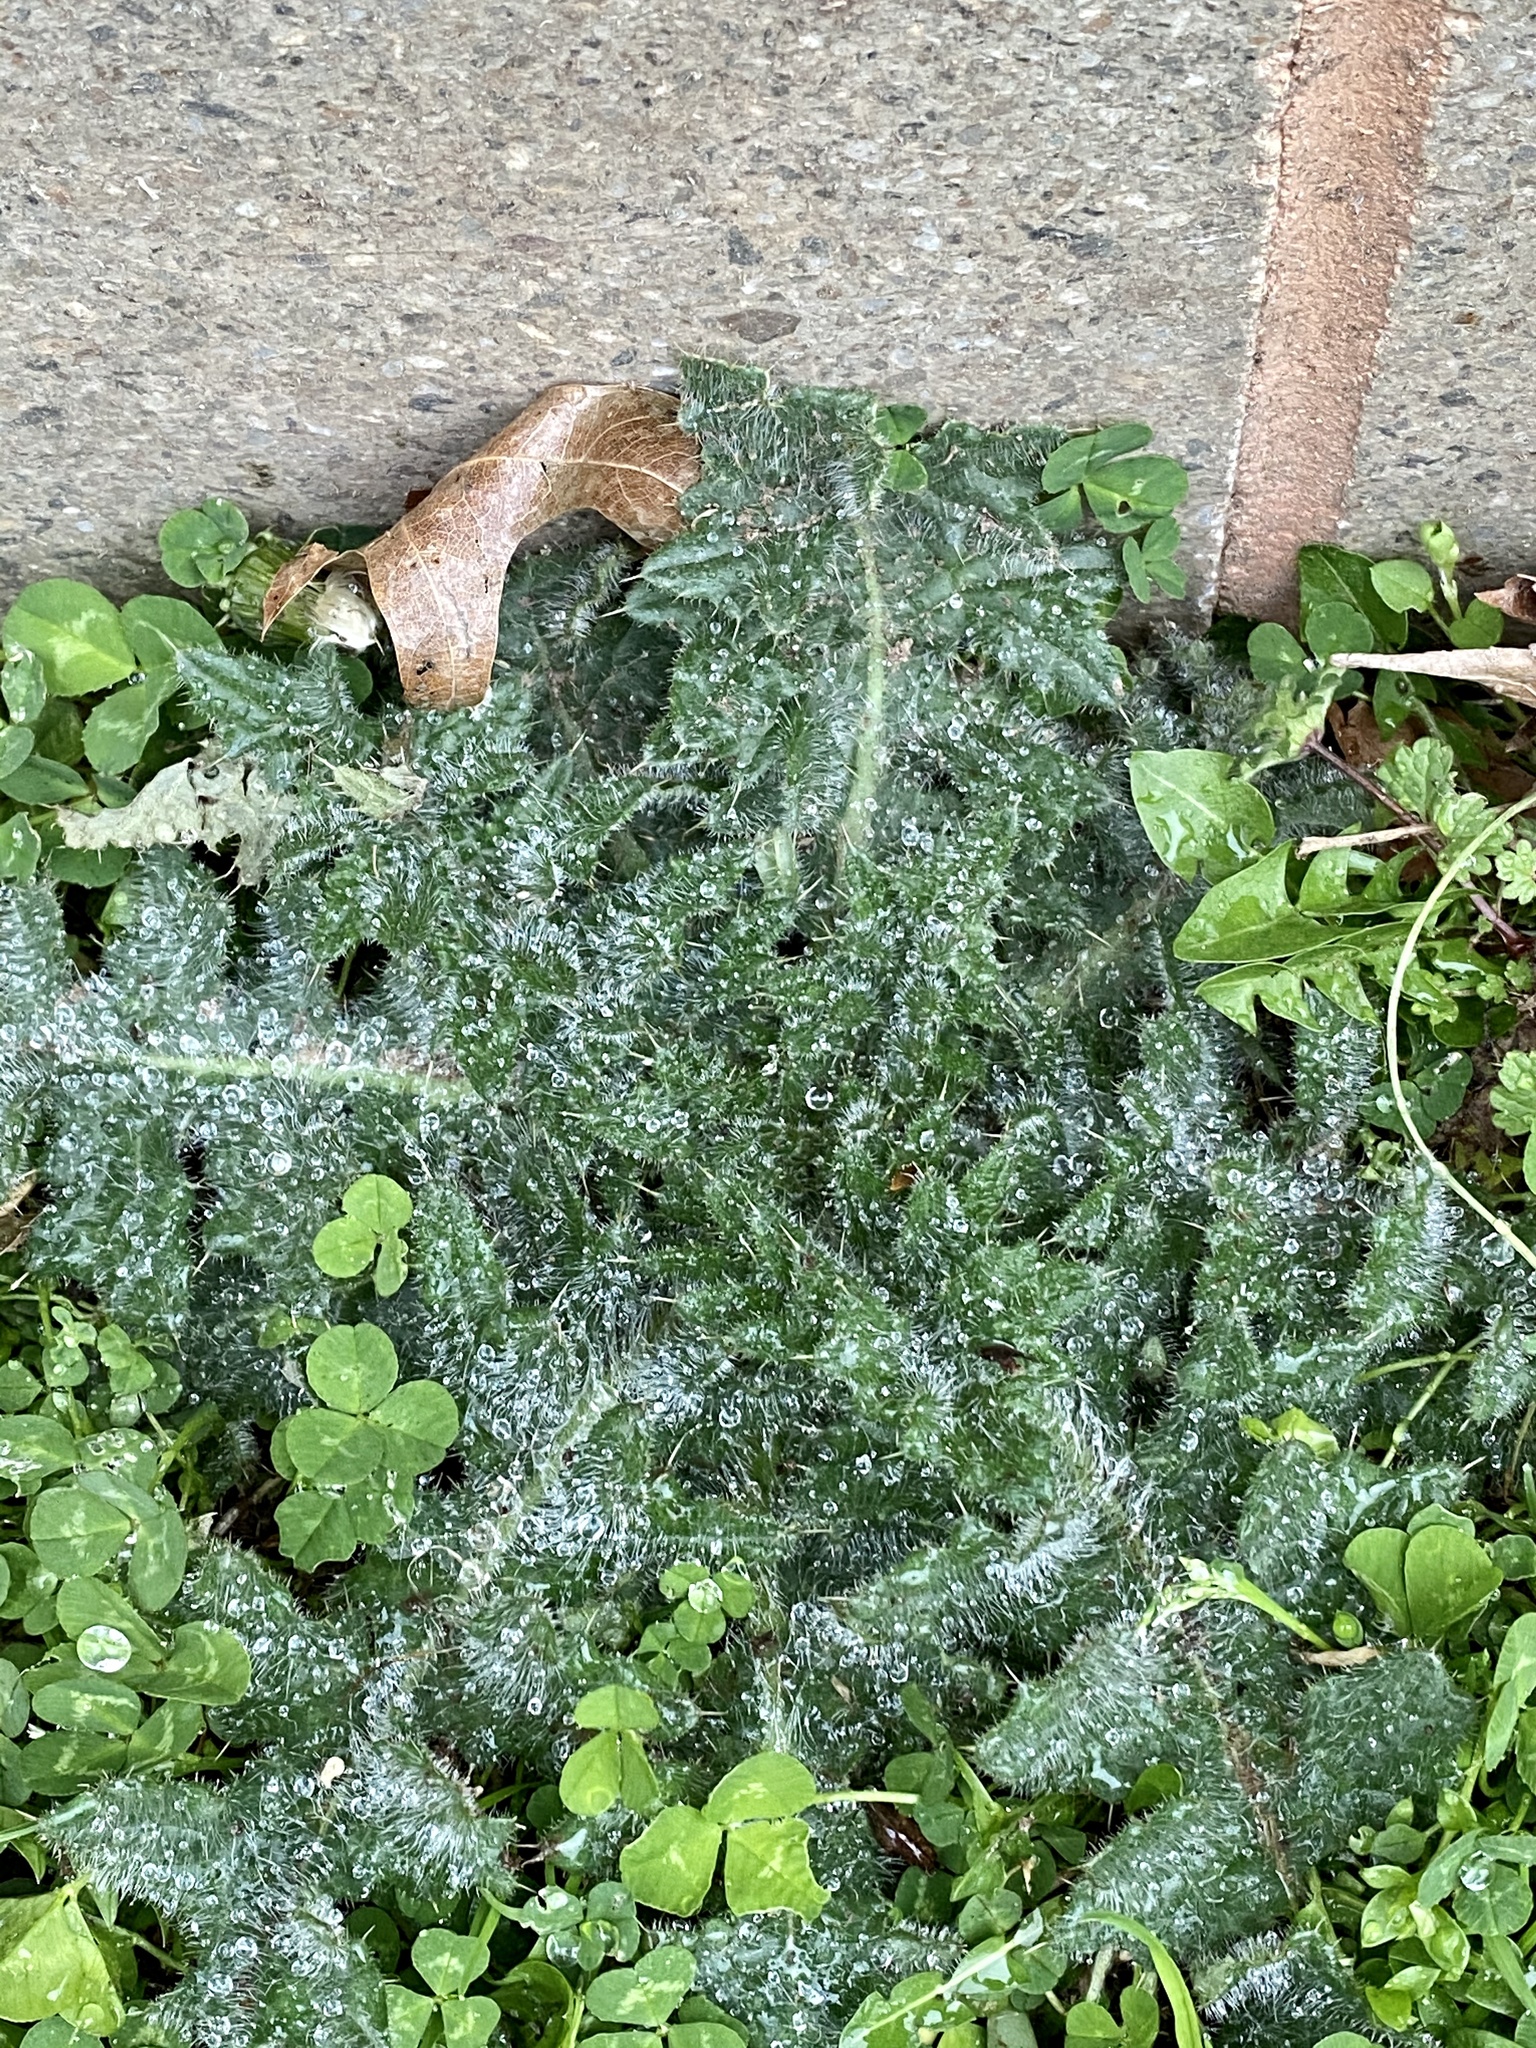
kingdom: Plantae
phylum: Tracheophyta
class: Magnoliopsida
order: Asterales
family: Asteraceae
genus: Cirsium
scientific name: Cirsium vulgare
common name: Bull thistle
